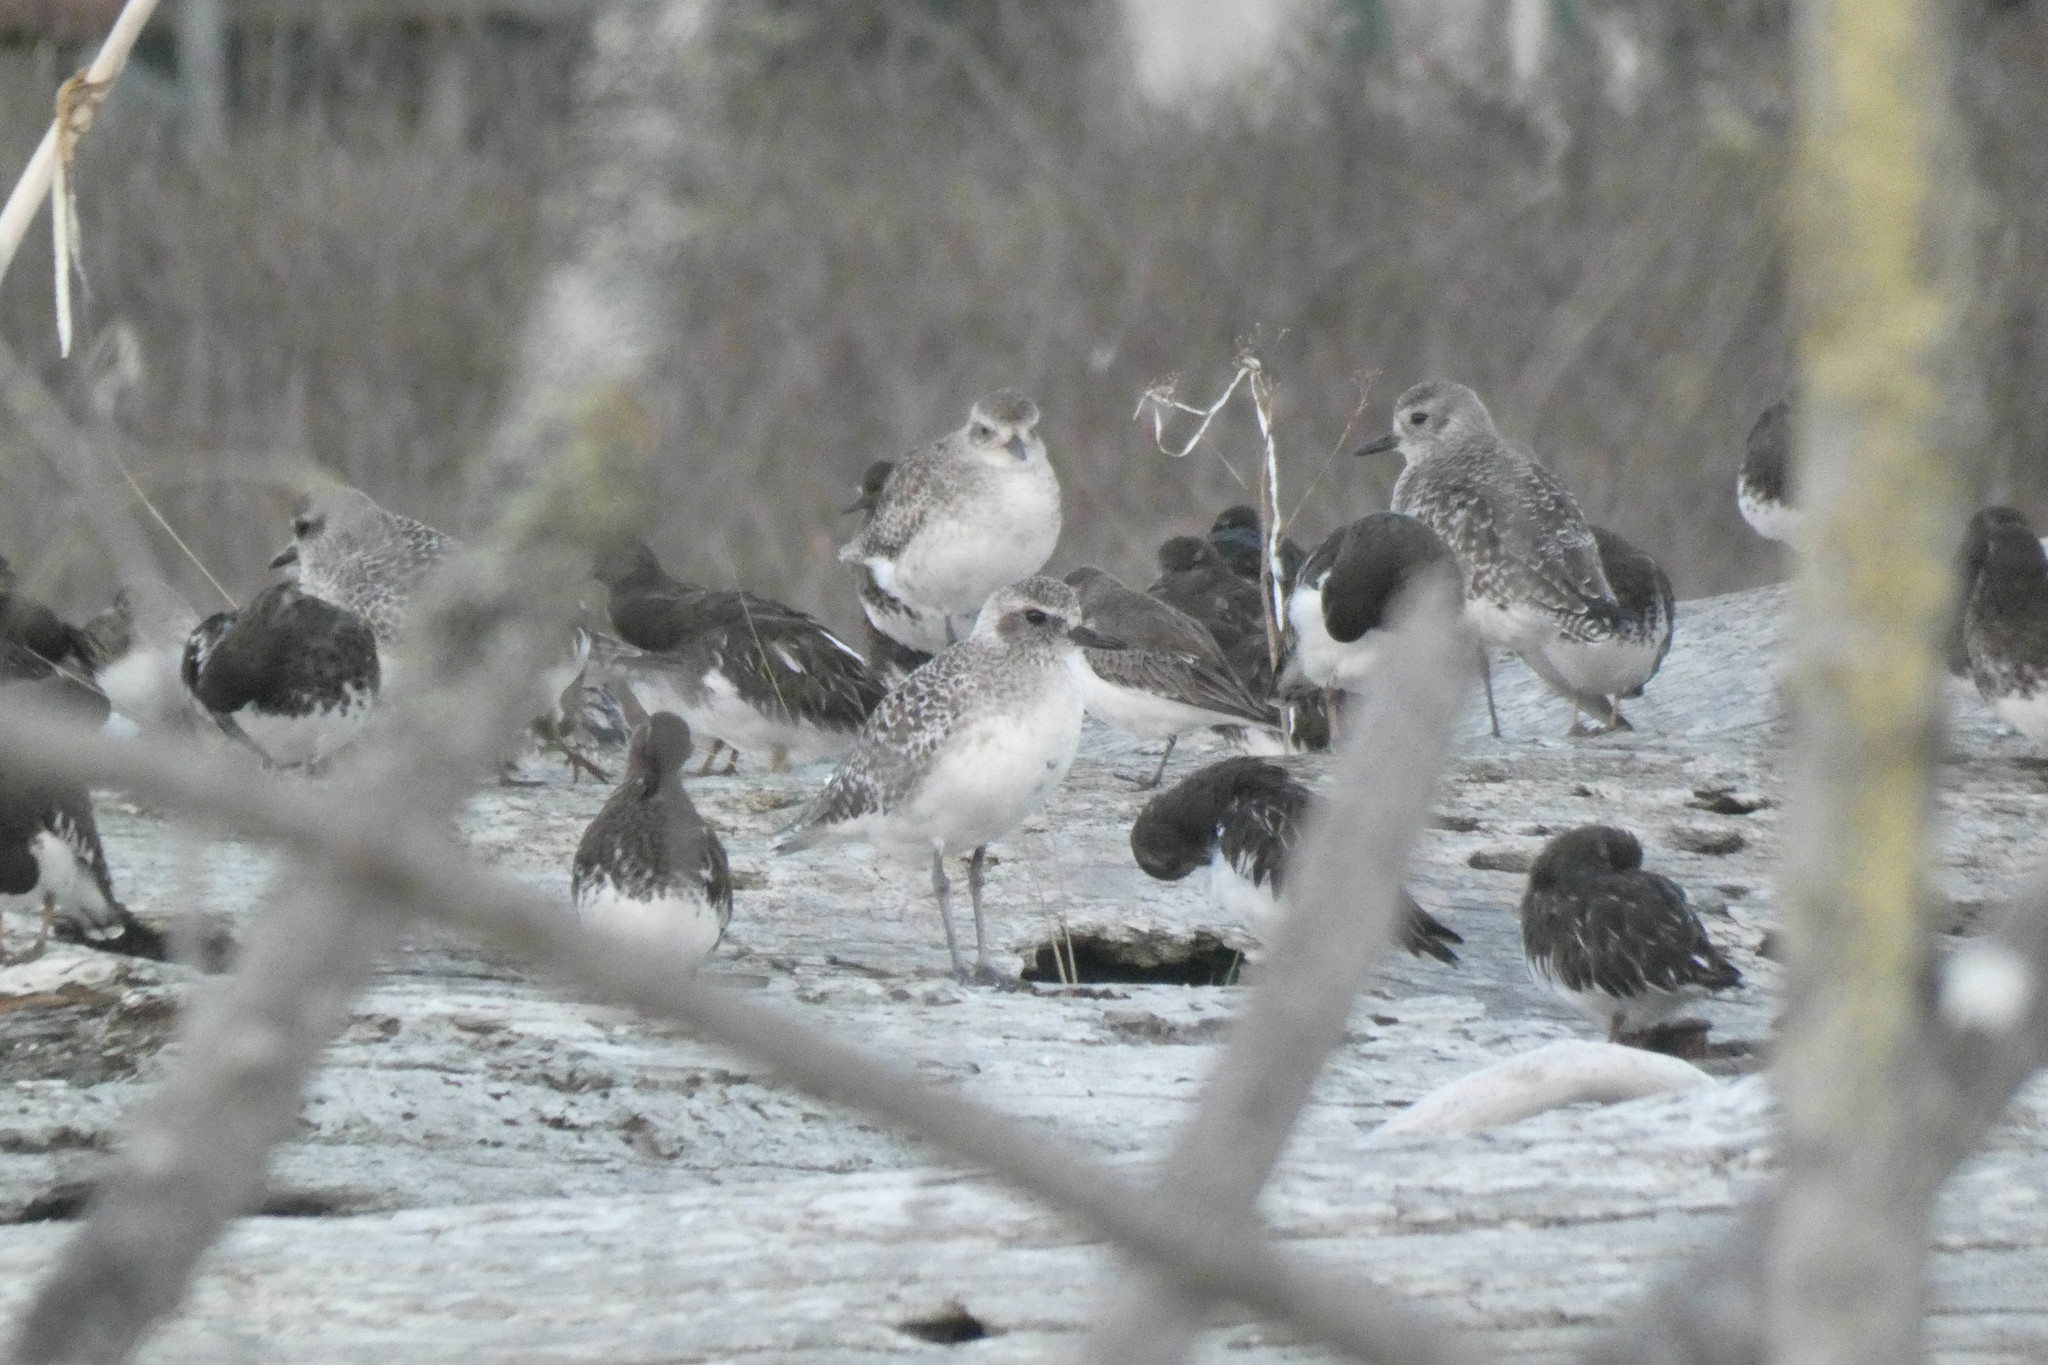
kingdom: Animalia
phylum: Chordata
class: Aves
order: Charadriiformes
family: Charadriidae
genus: Pluvialis
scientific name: Pluvialis squatarola
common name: Grey plover
